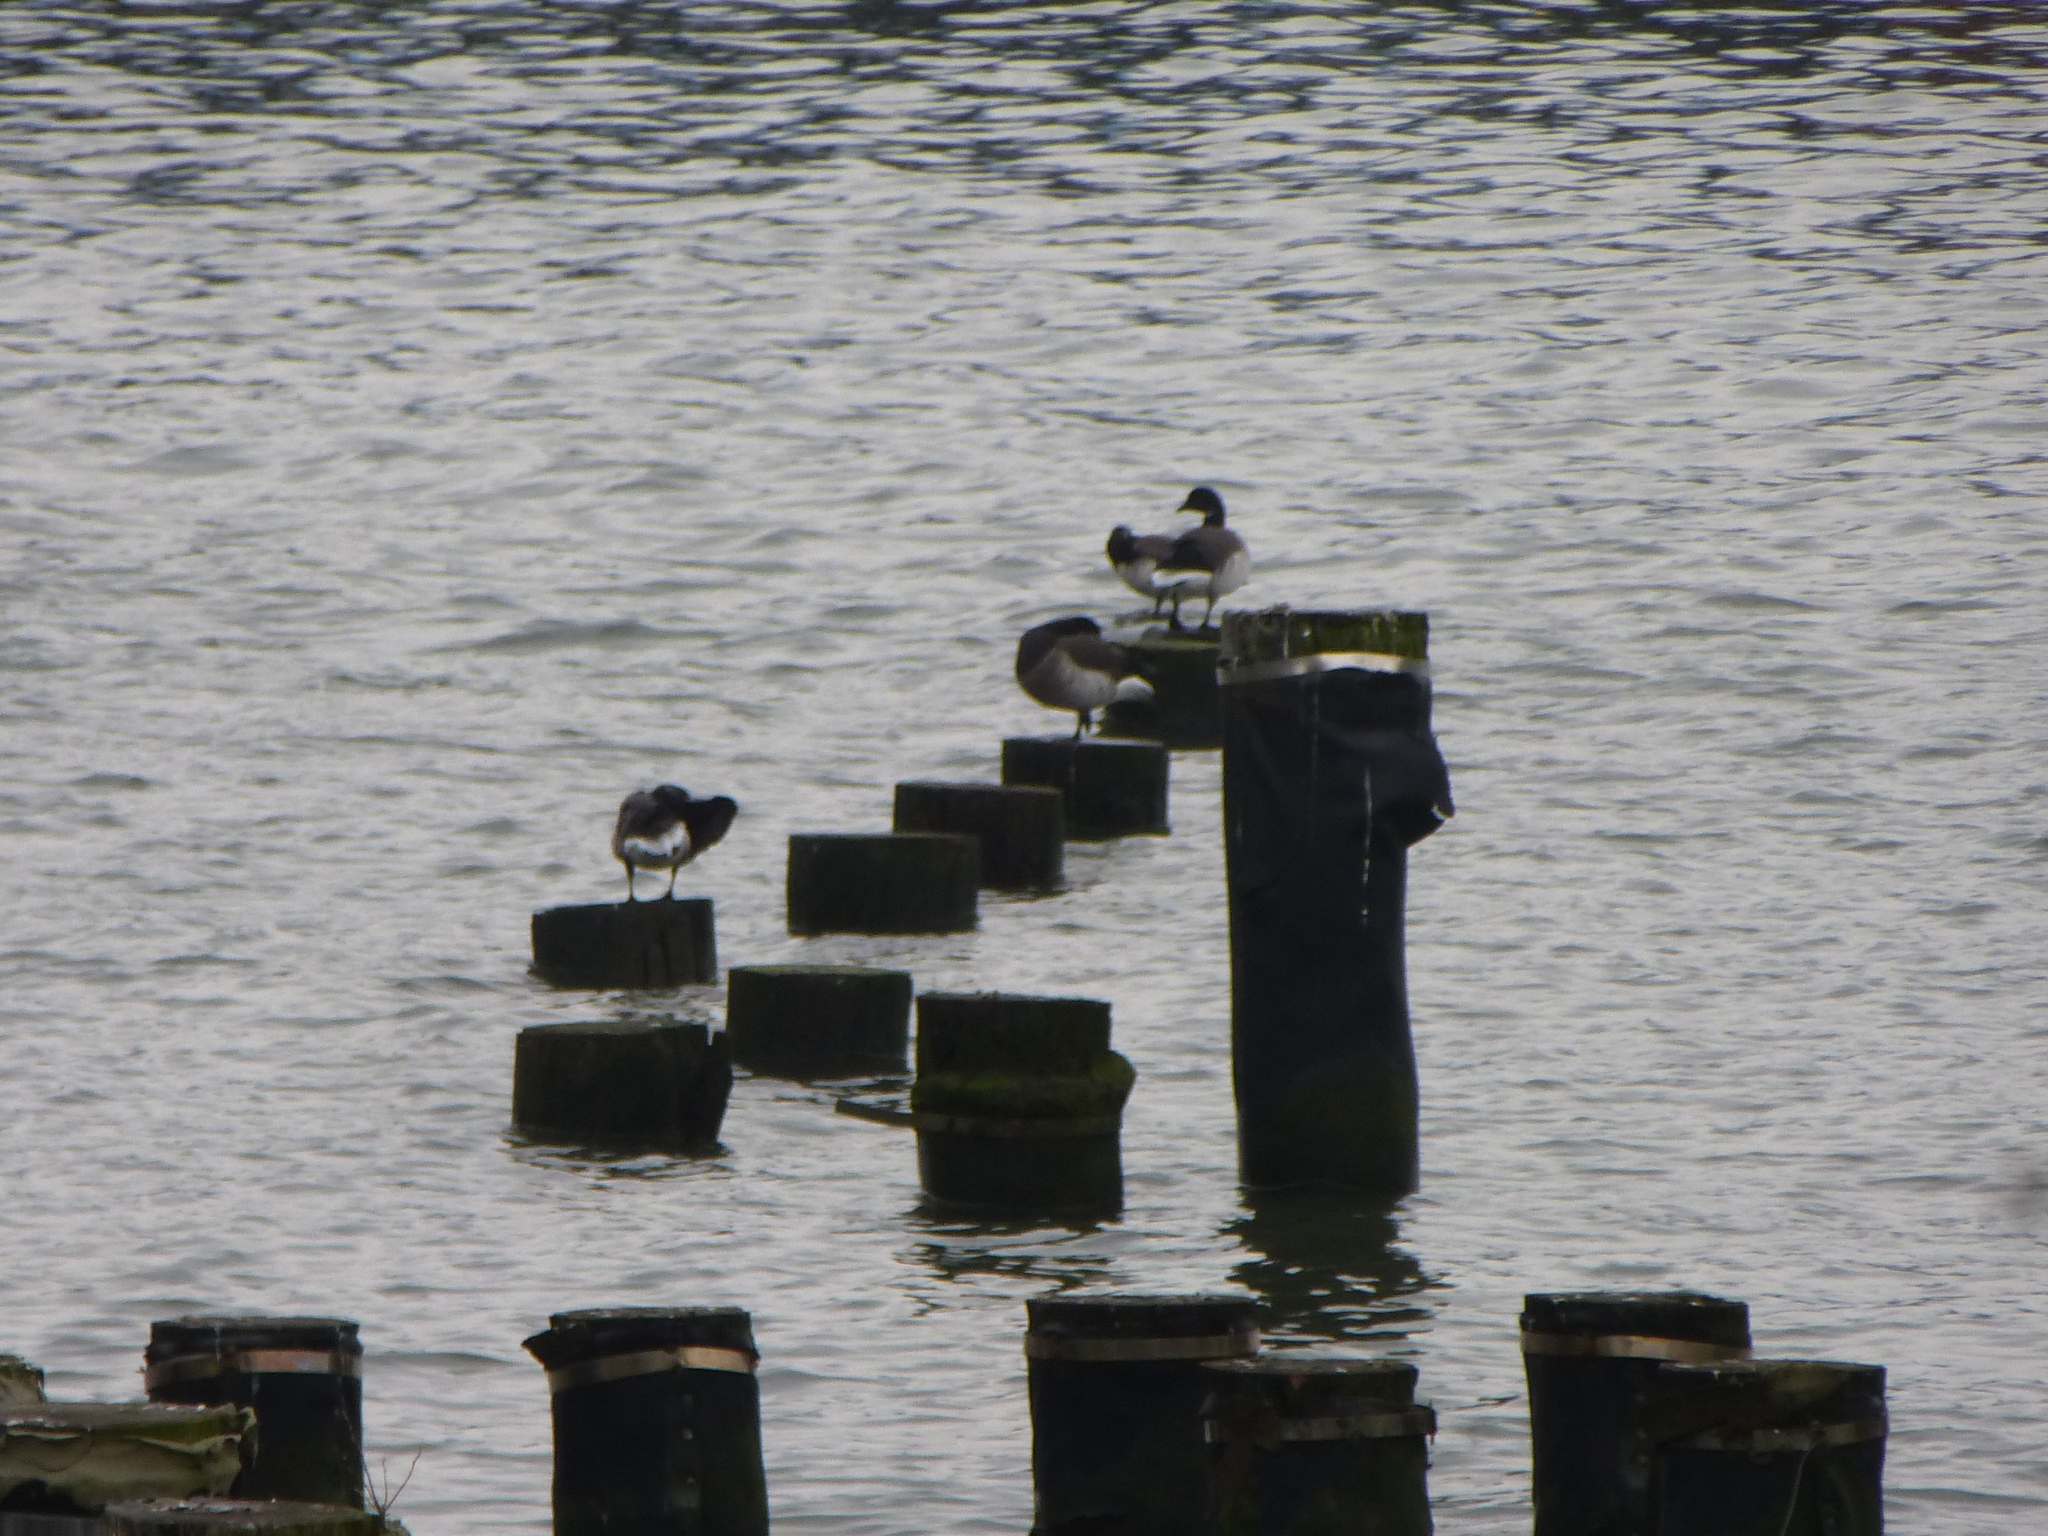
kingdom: Animalia
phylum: Chordata
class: Aves
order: Anseriformes
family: Anatidae
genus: Branta
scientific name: Branta bernicla
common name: Brant goose
